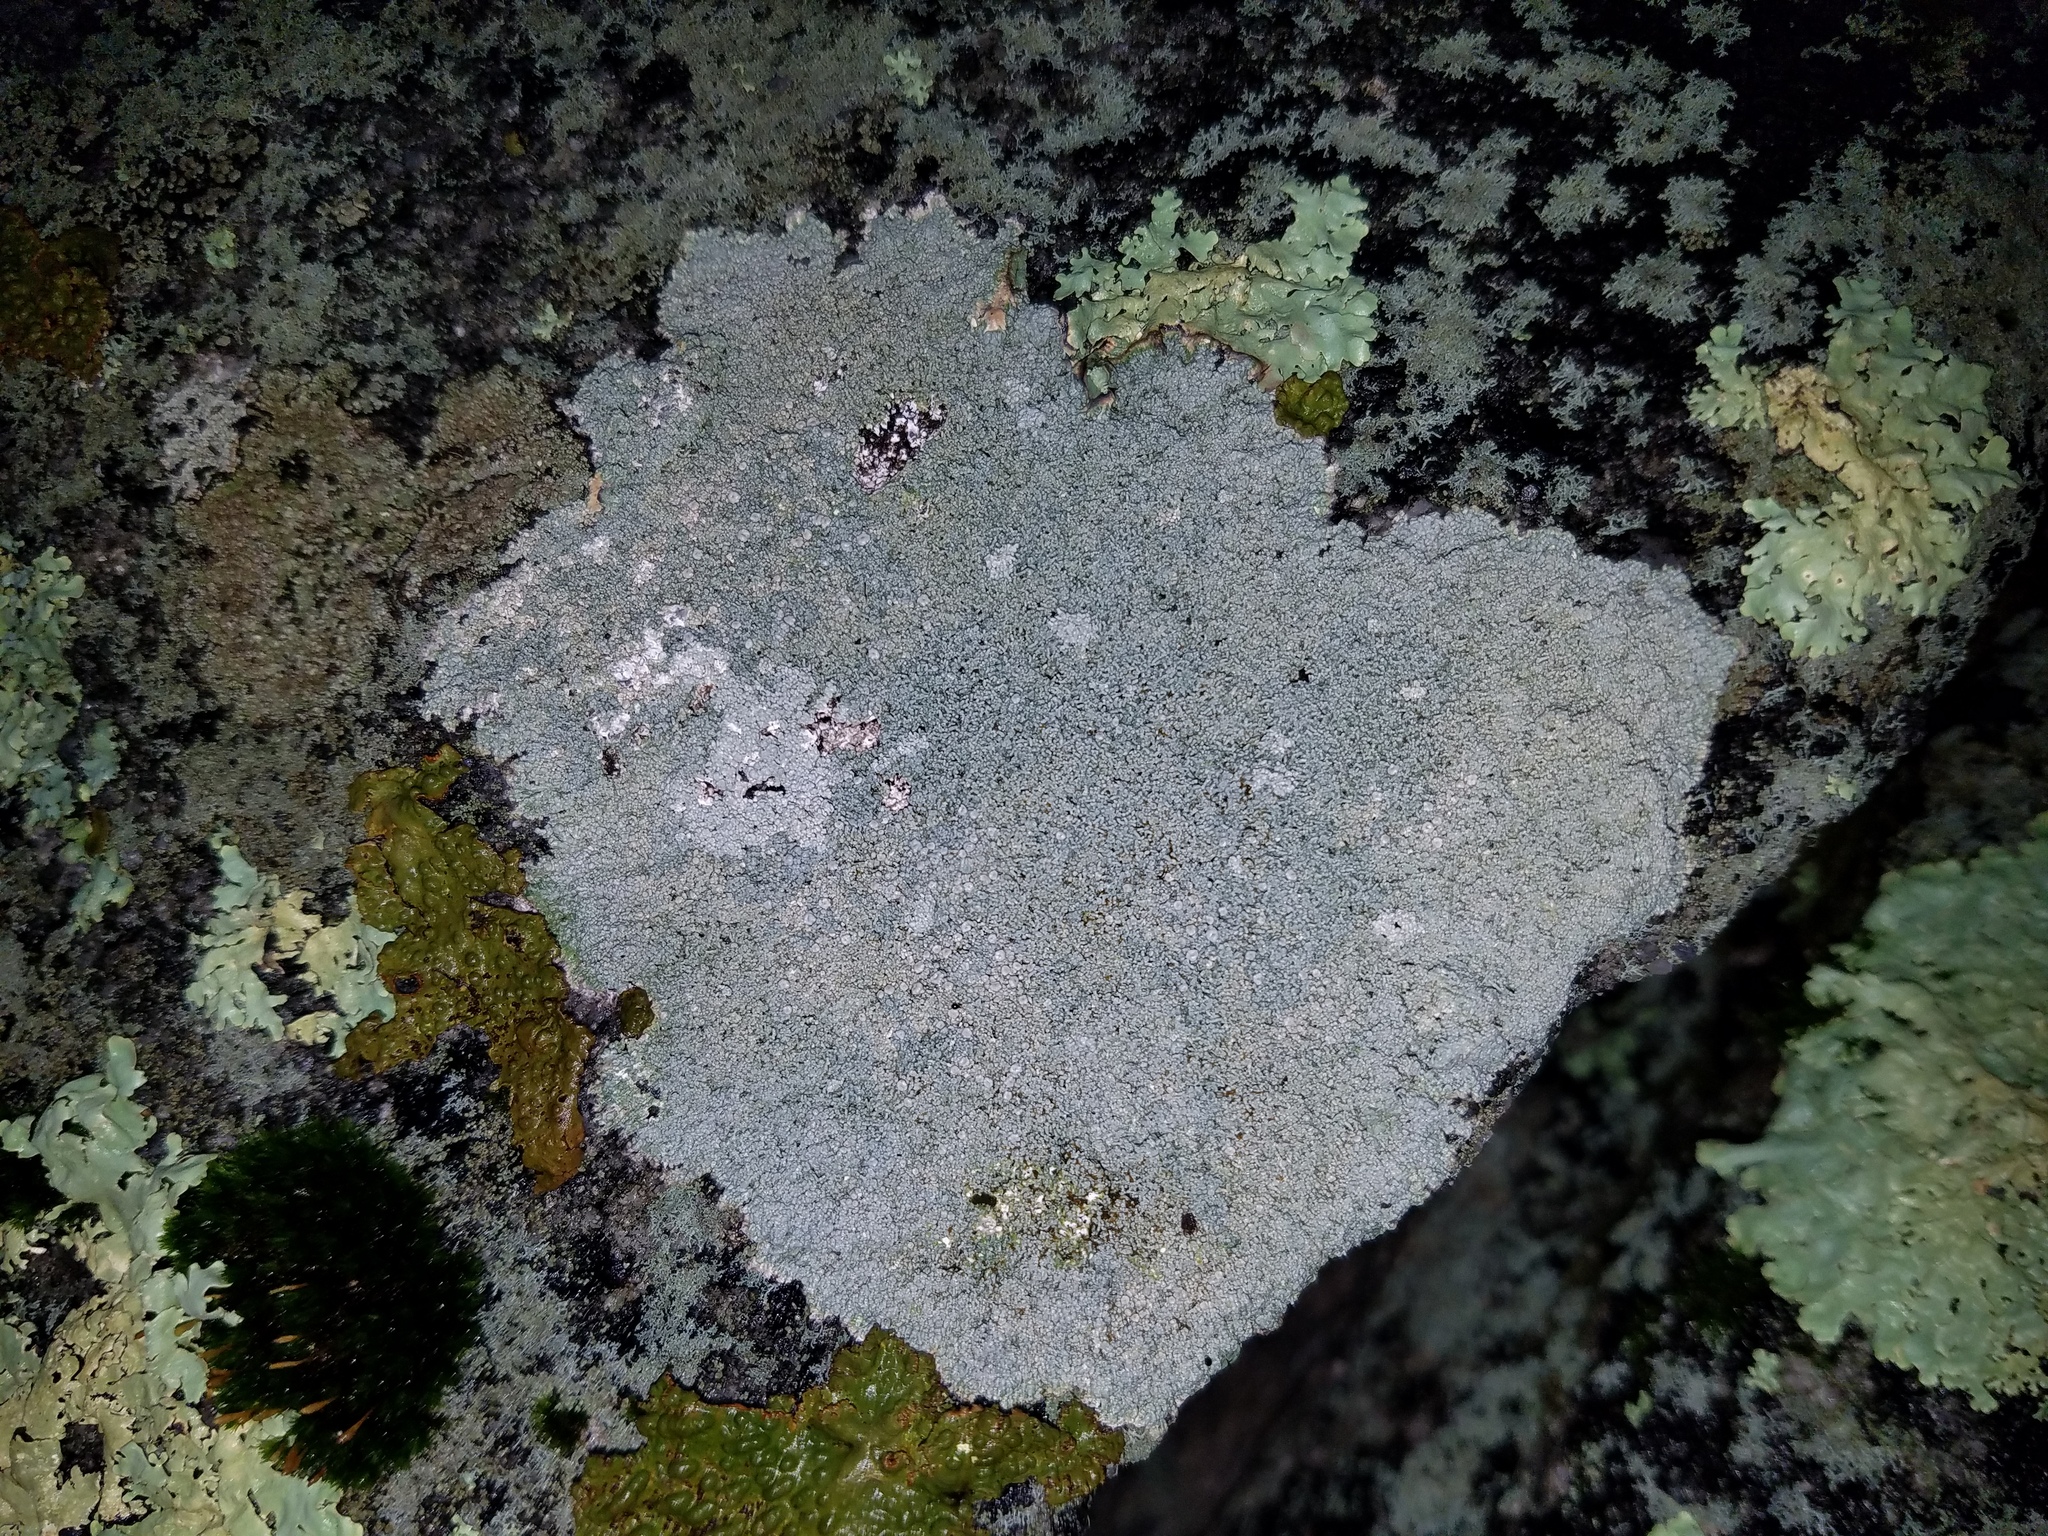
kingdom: Fungi
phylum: Ascomycota
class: Lecanoromycetes
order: Pertusariales
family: Ochrolechiaceae
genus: Ochrolechia
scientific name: Ochrolechia yasudae
